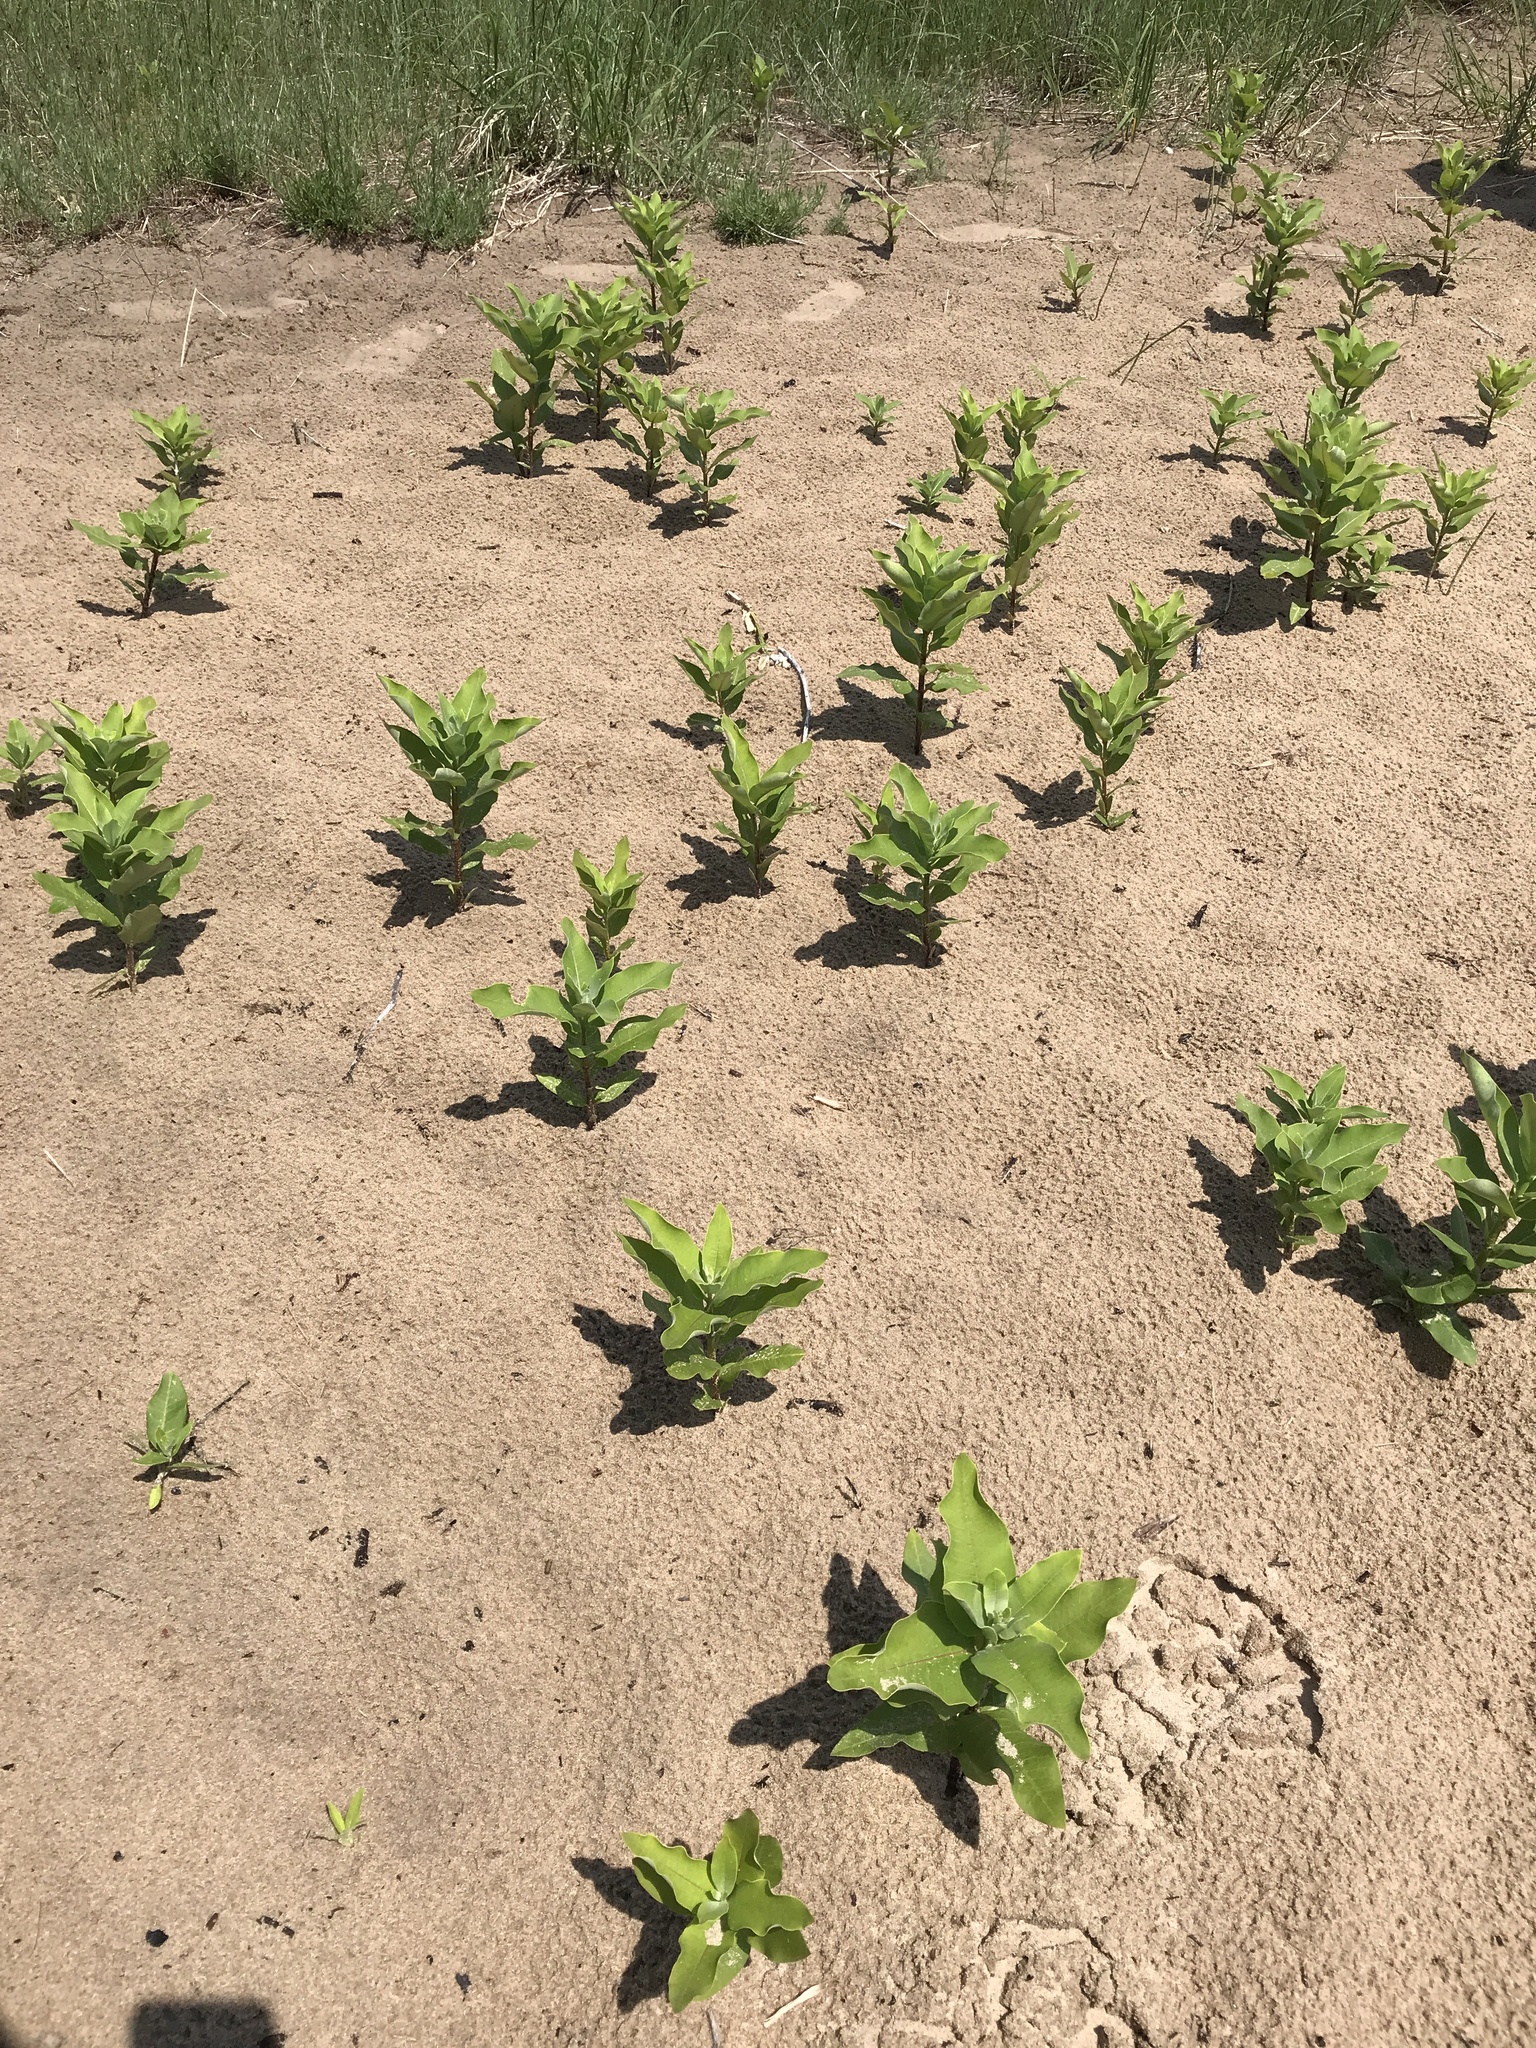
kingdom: Plantae
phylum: Tracheophyta
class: Magnoliopsida
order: Gentianales
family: Apocynaceae
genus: Asclepias
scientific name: Asclepias syriaca
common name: Common milkweed
